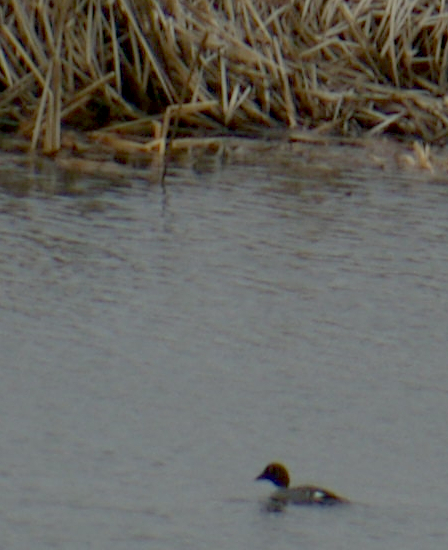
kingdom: Animalia
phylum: Chordata
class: Aves
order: Anseriformes
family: Anatidae
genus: Bucephala
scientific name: Bucephala clangula
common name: Common goldeneye
